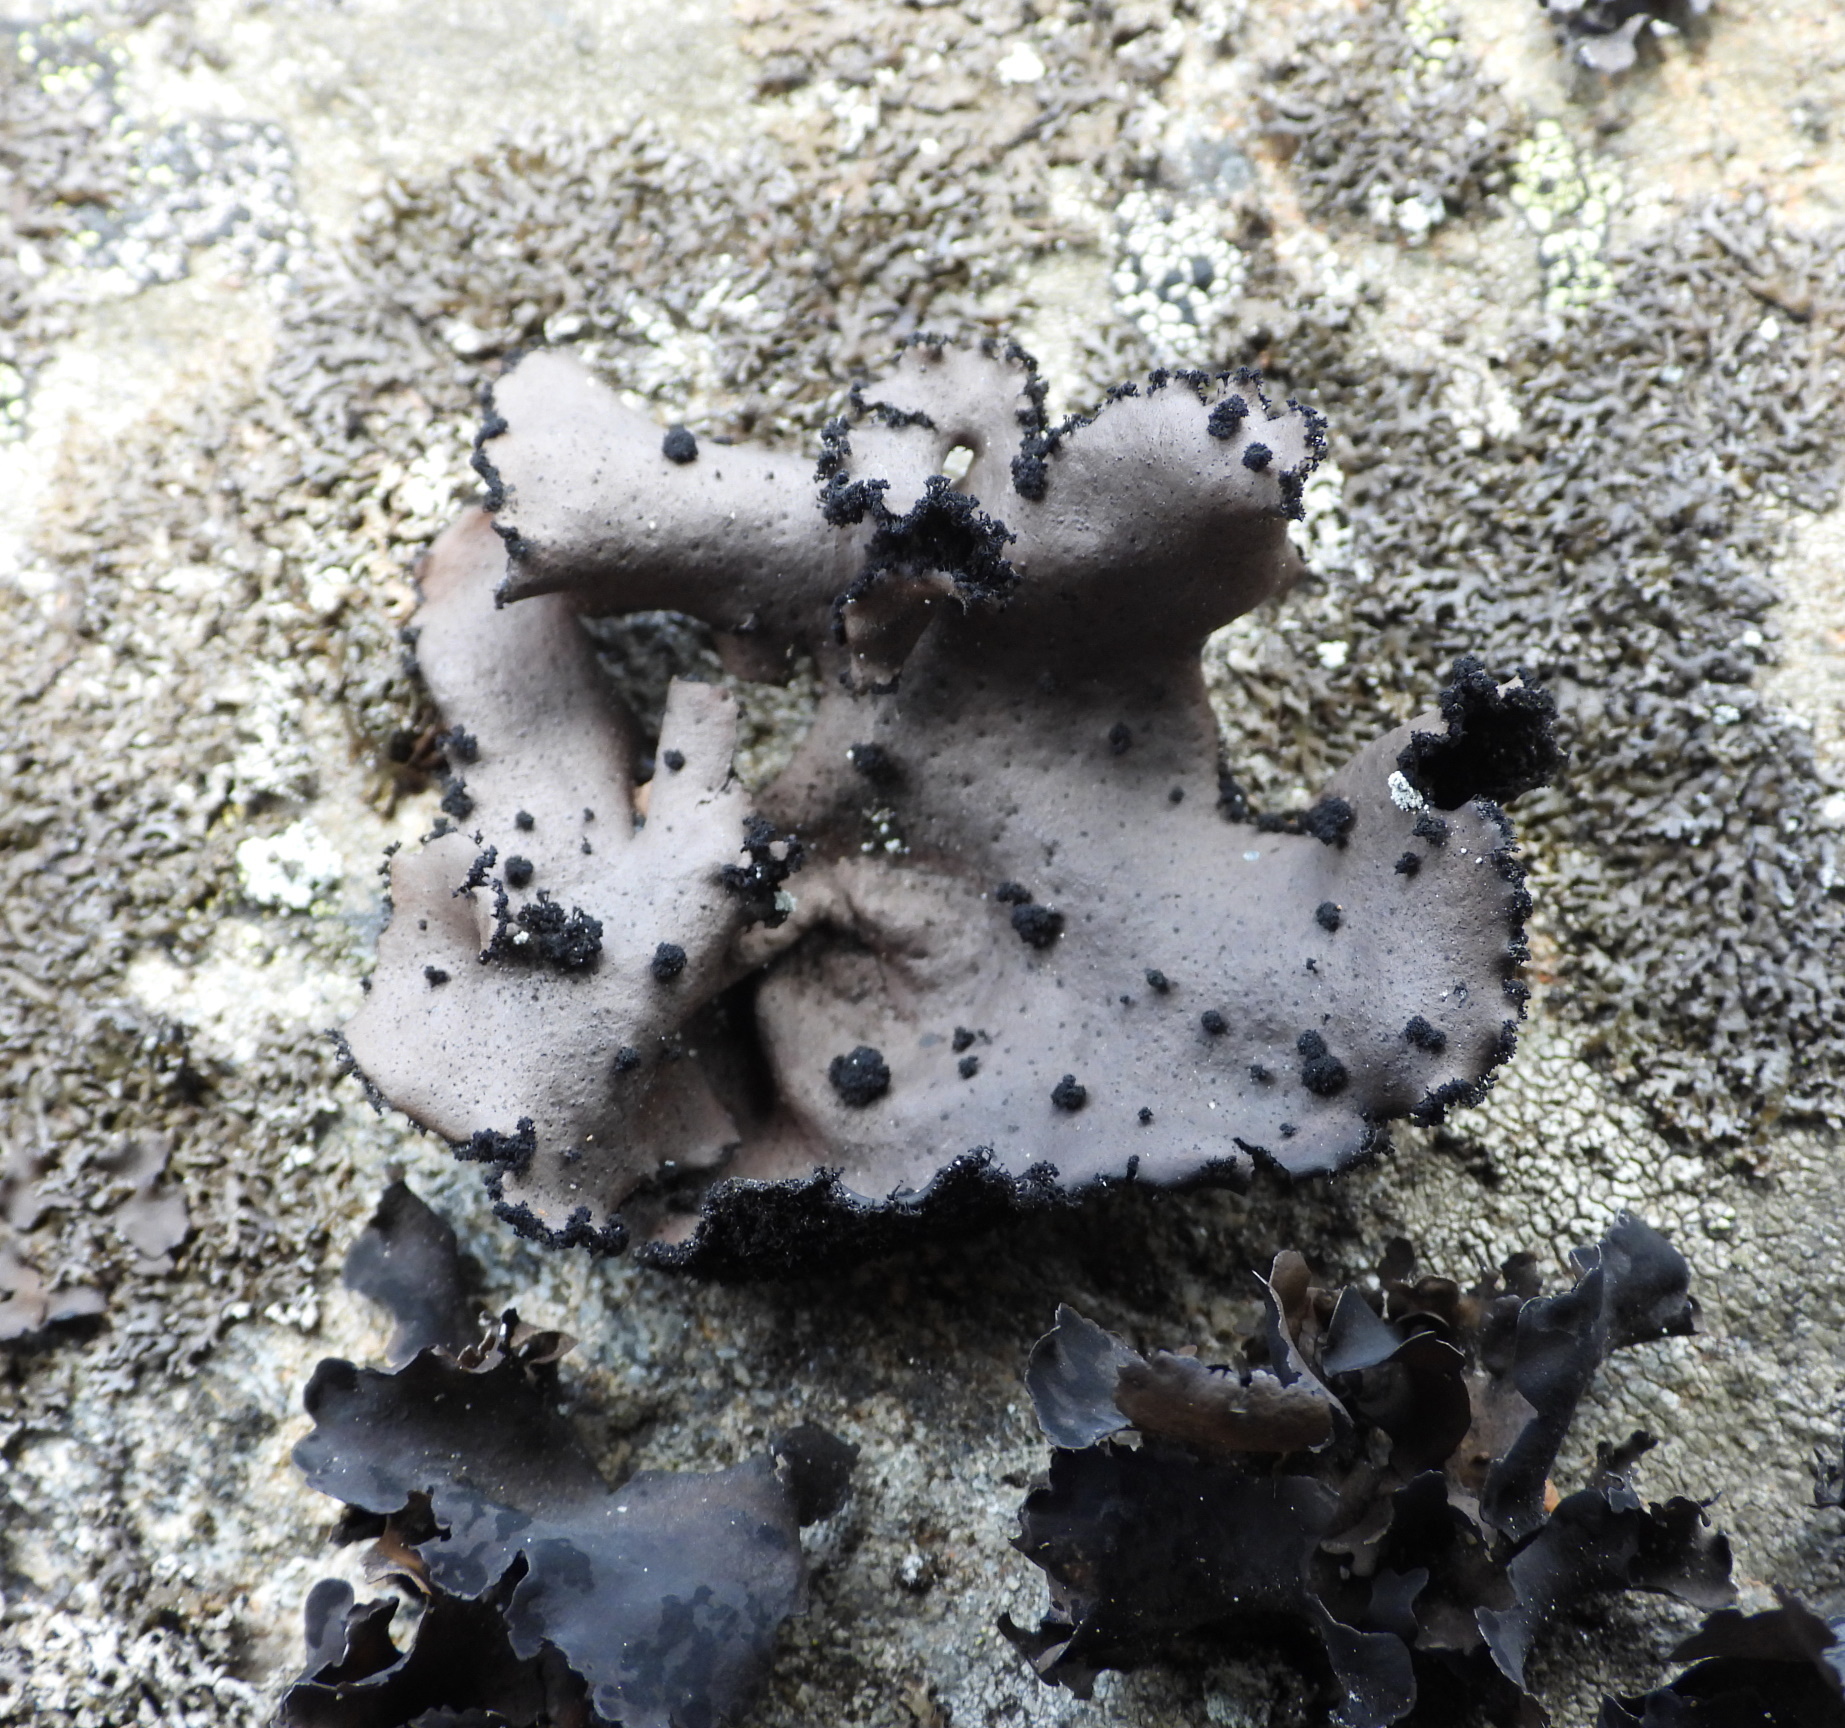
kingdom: Fungi
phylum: Ascomycota
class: Lecanoromycetes
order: Umbilicariales
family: Umbilicariaceae
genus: Umbilicaria
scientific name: Umbilicaria polyrrhiza
